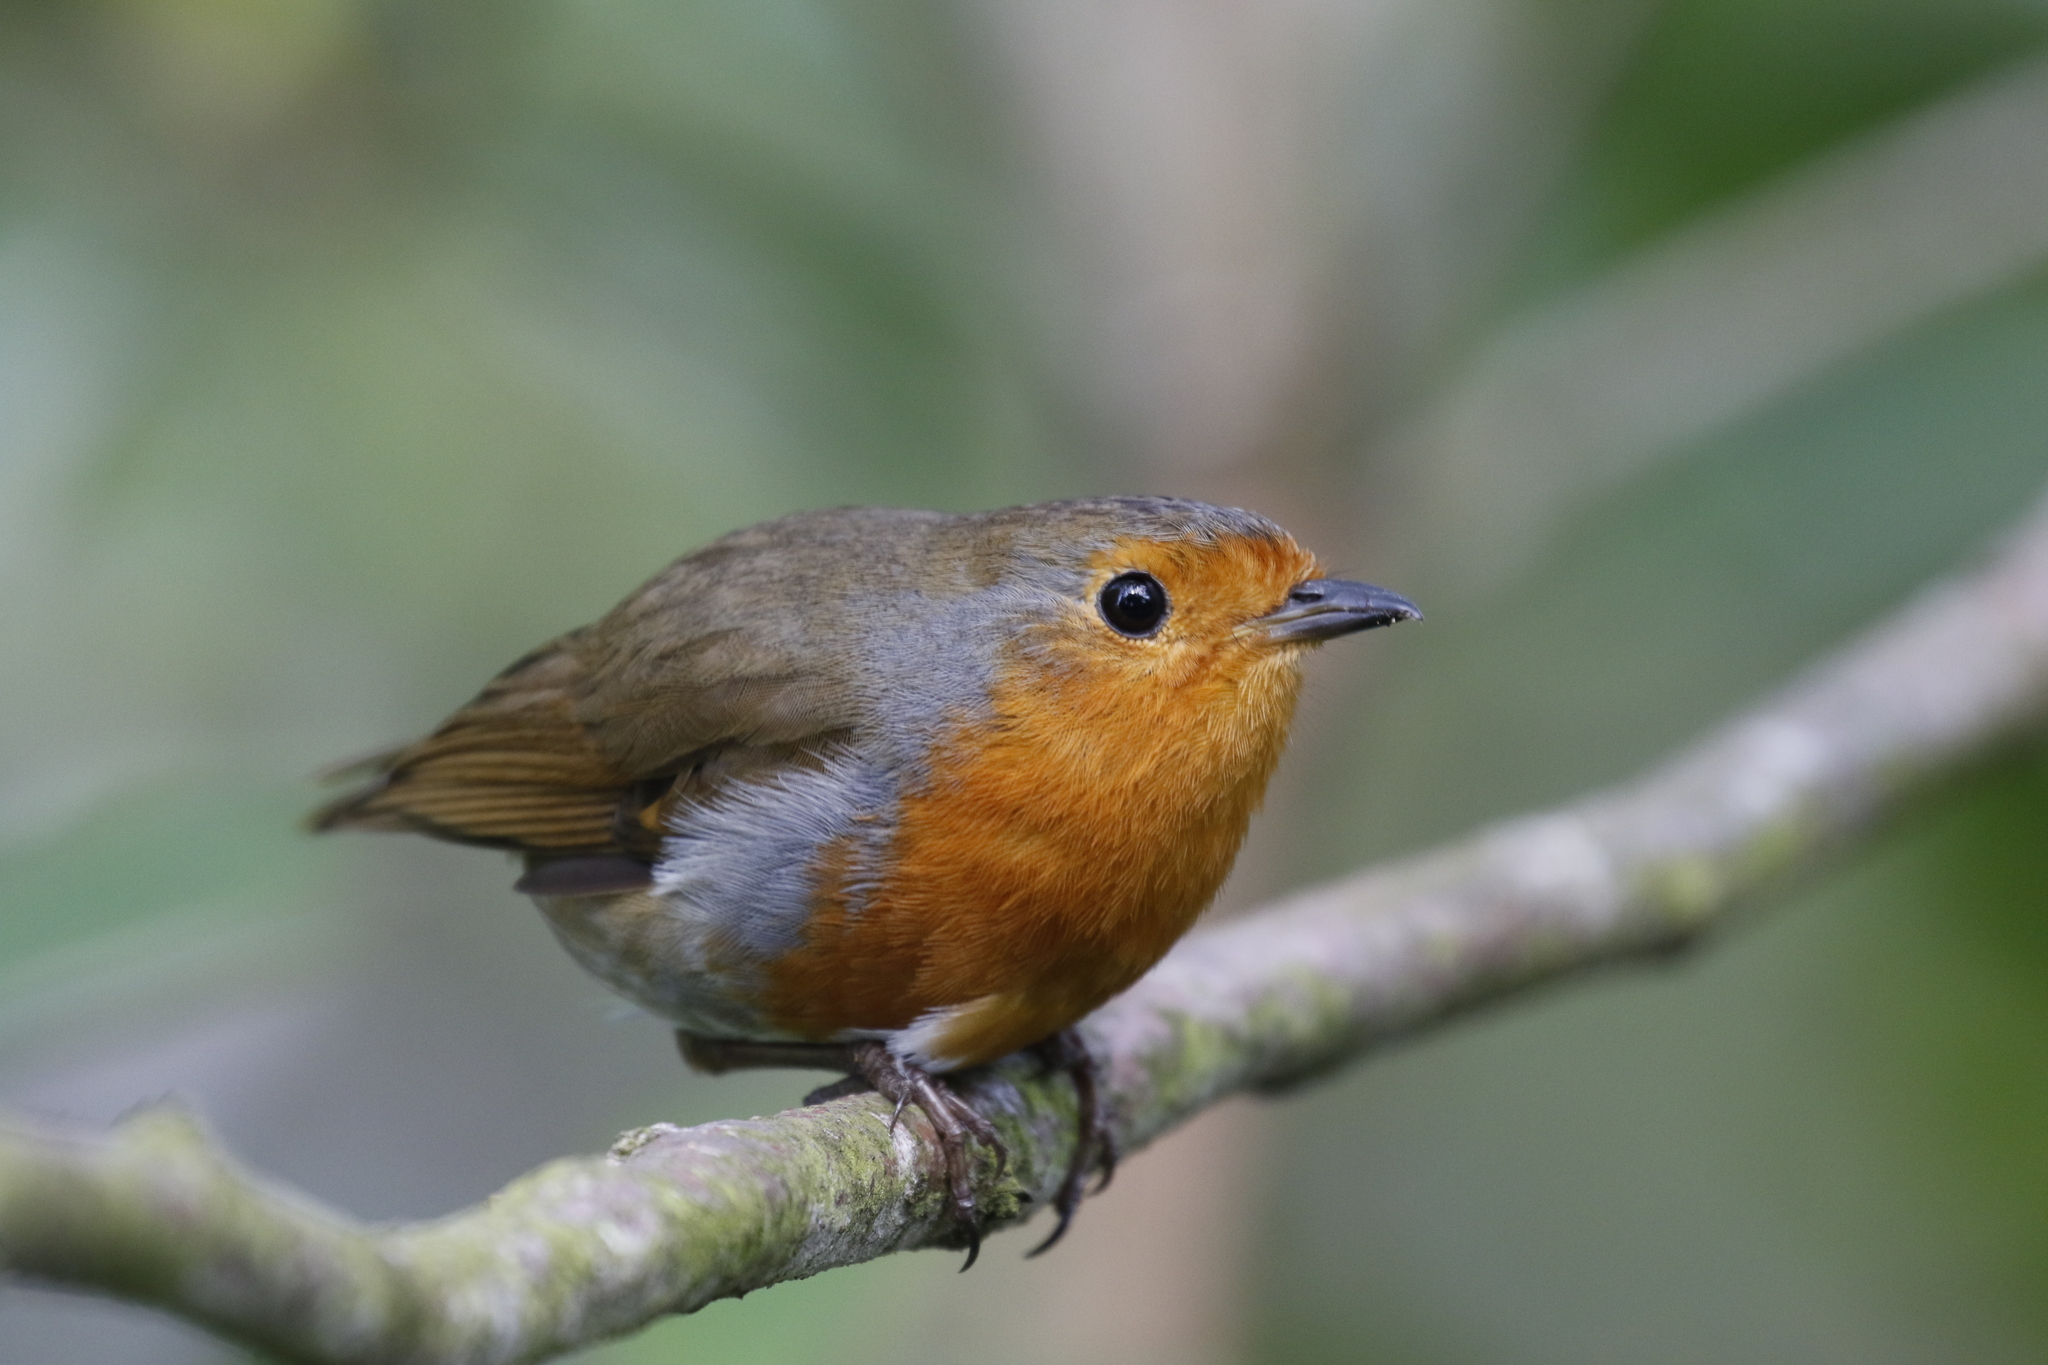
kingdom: Animalia
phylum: Chordata
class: Aves
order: Passeriformes
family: Muscicapidae
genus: Erithacus
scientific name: Erithacus rubecula
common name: European robin
